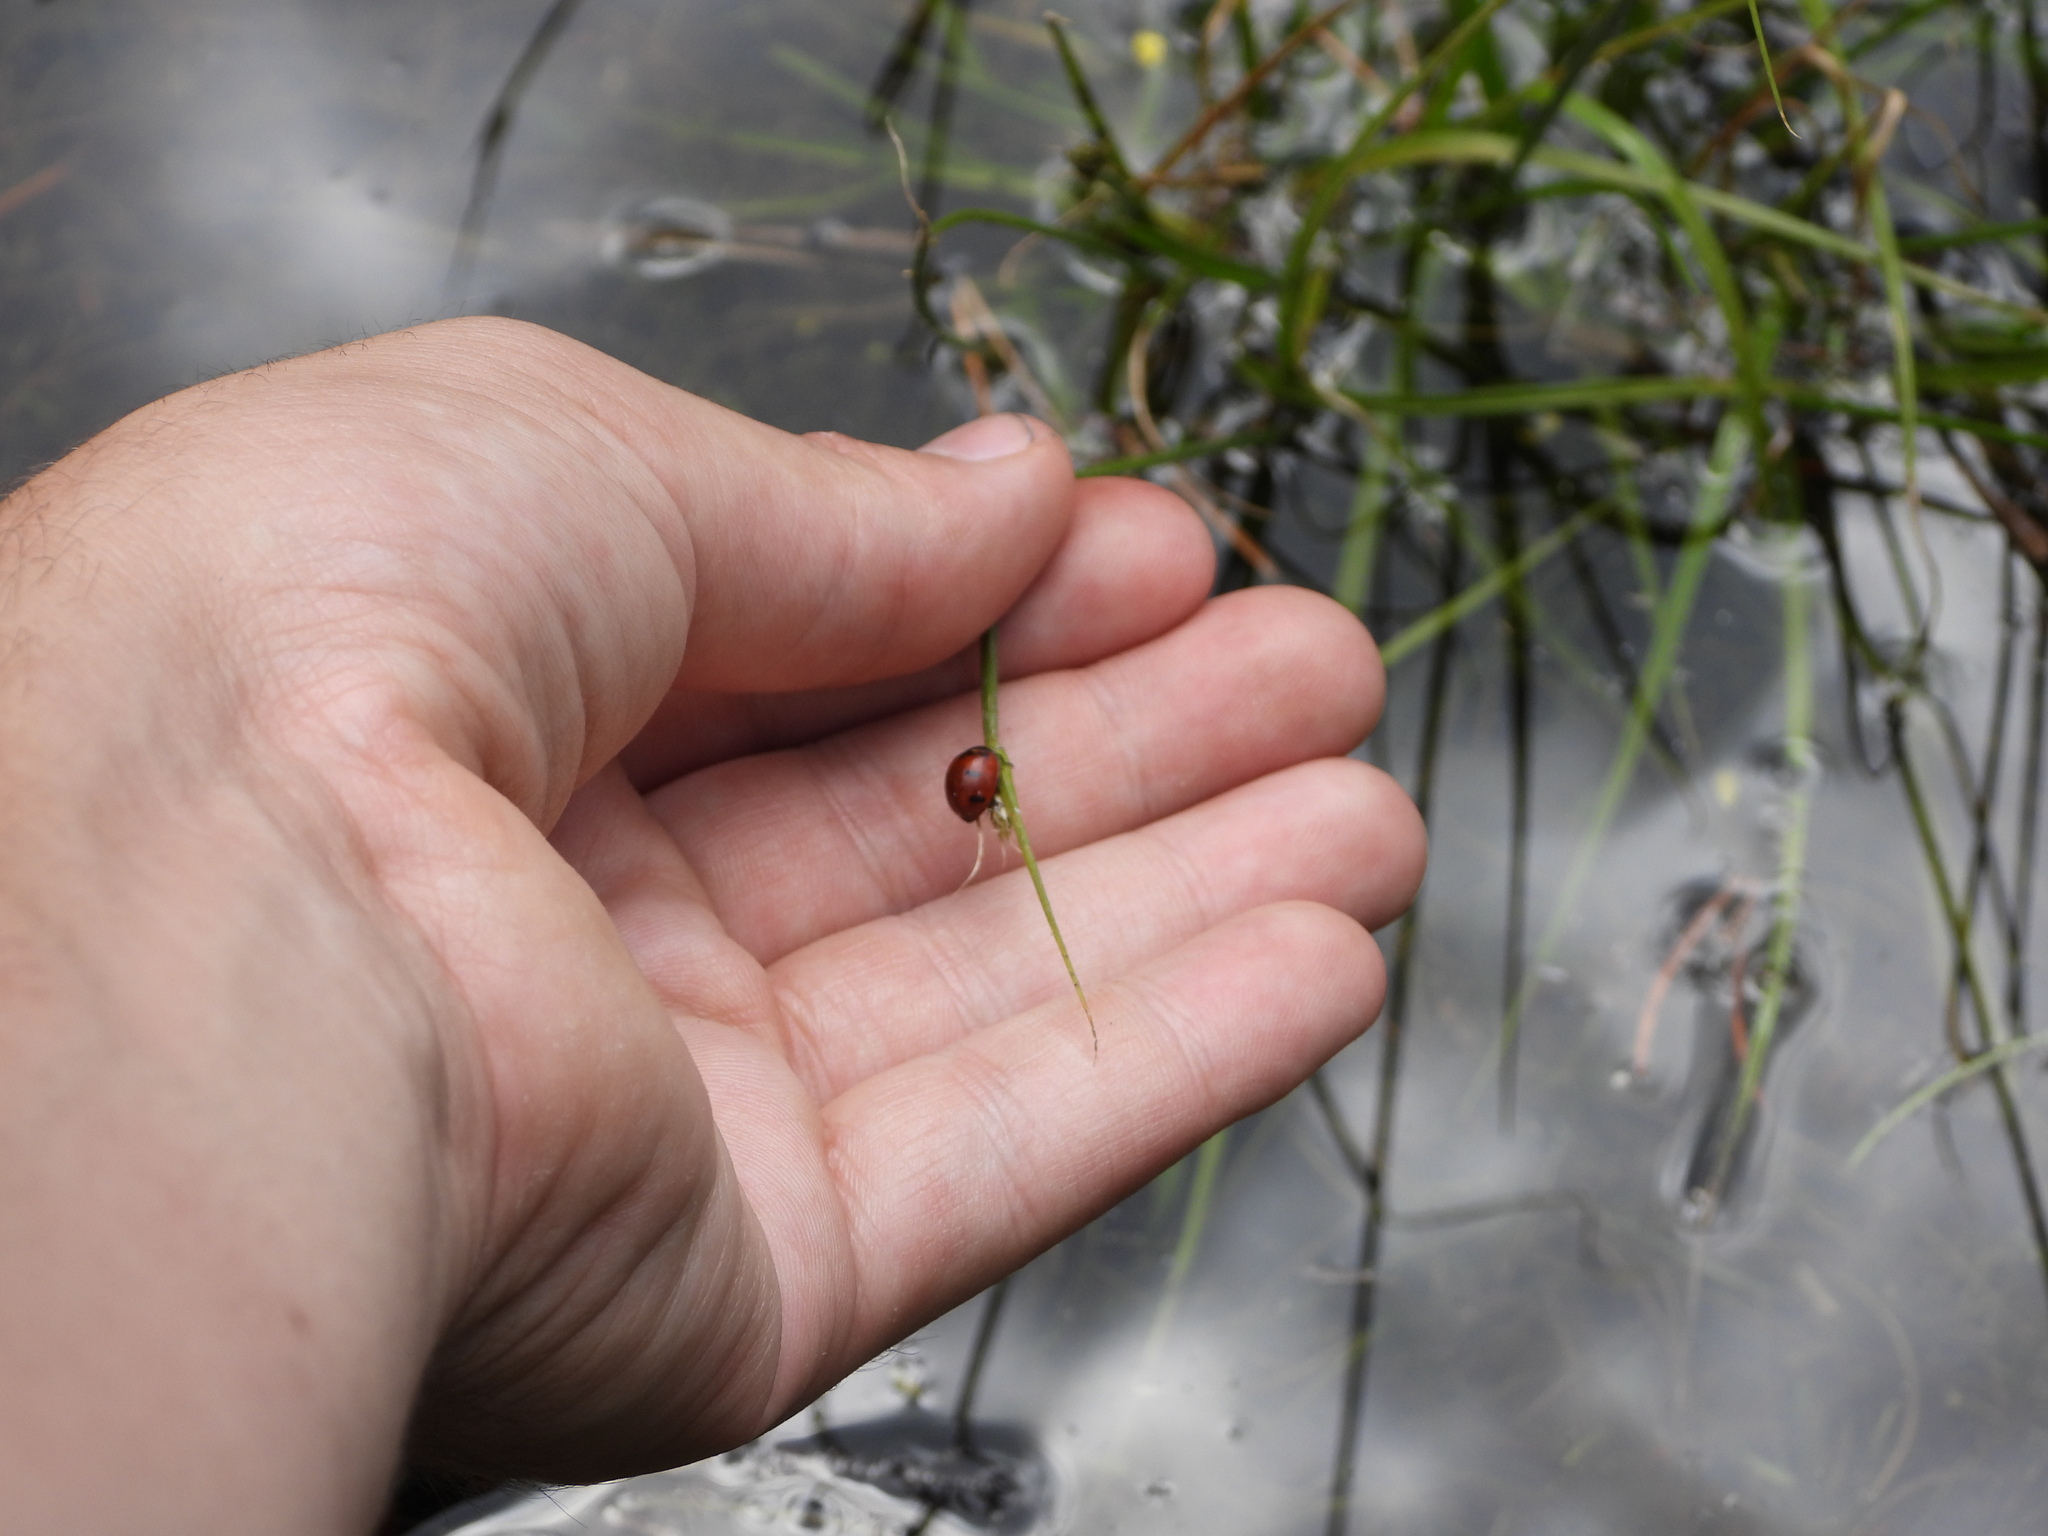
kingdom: Animalia
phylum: Arthropoda
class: Insecta
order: Coleoptera
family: Coccinellidae
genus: Coccinella
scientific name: Coccinella transversoguttata
